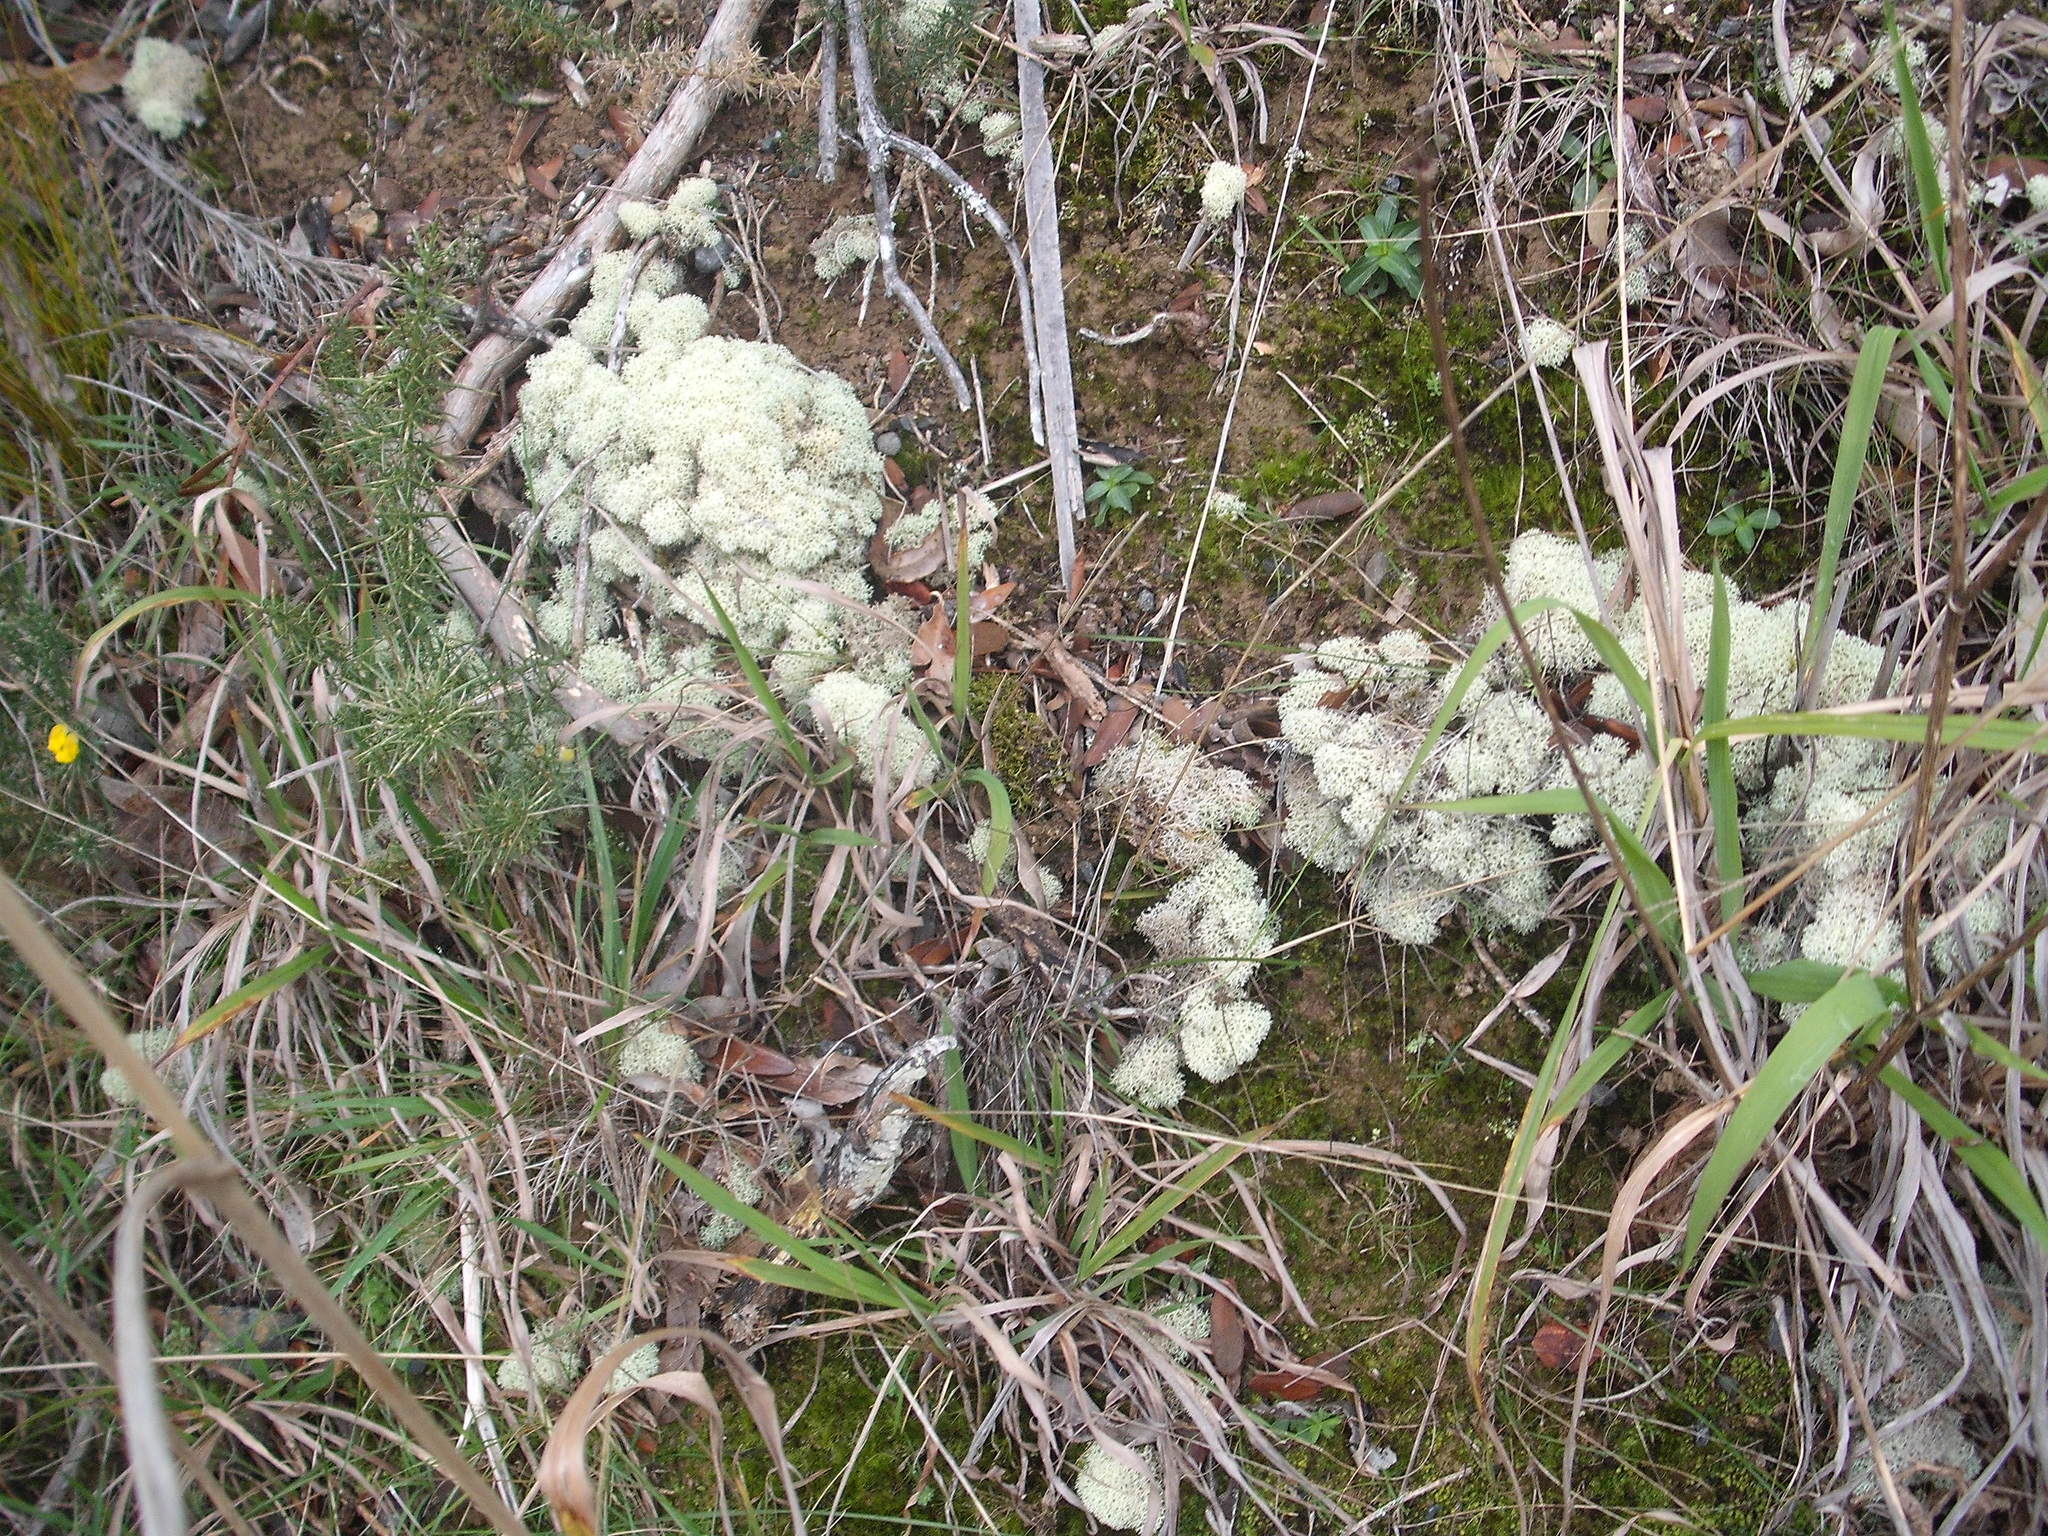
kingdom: Fungi
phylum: Ascomycota
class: Lecanoromycetes
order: Lecanorales
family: Cladoniaceae
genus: Cladonia
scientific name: Cladonia confusa
